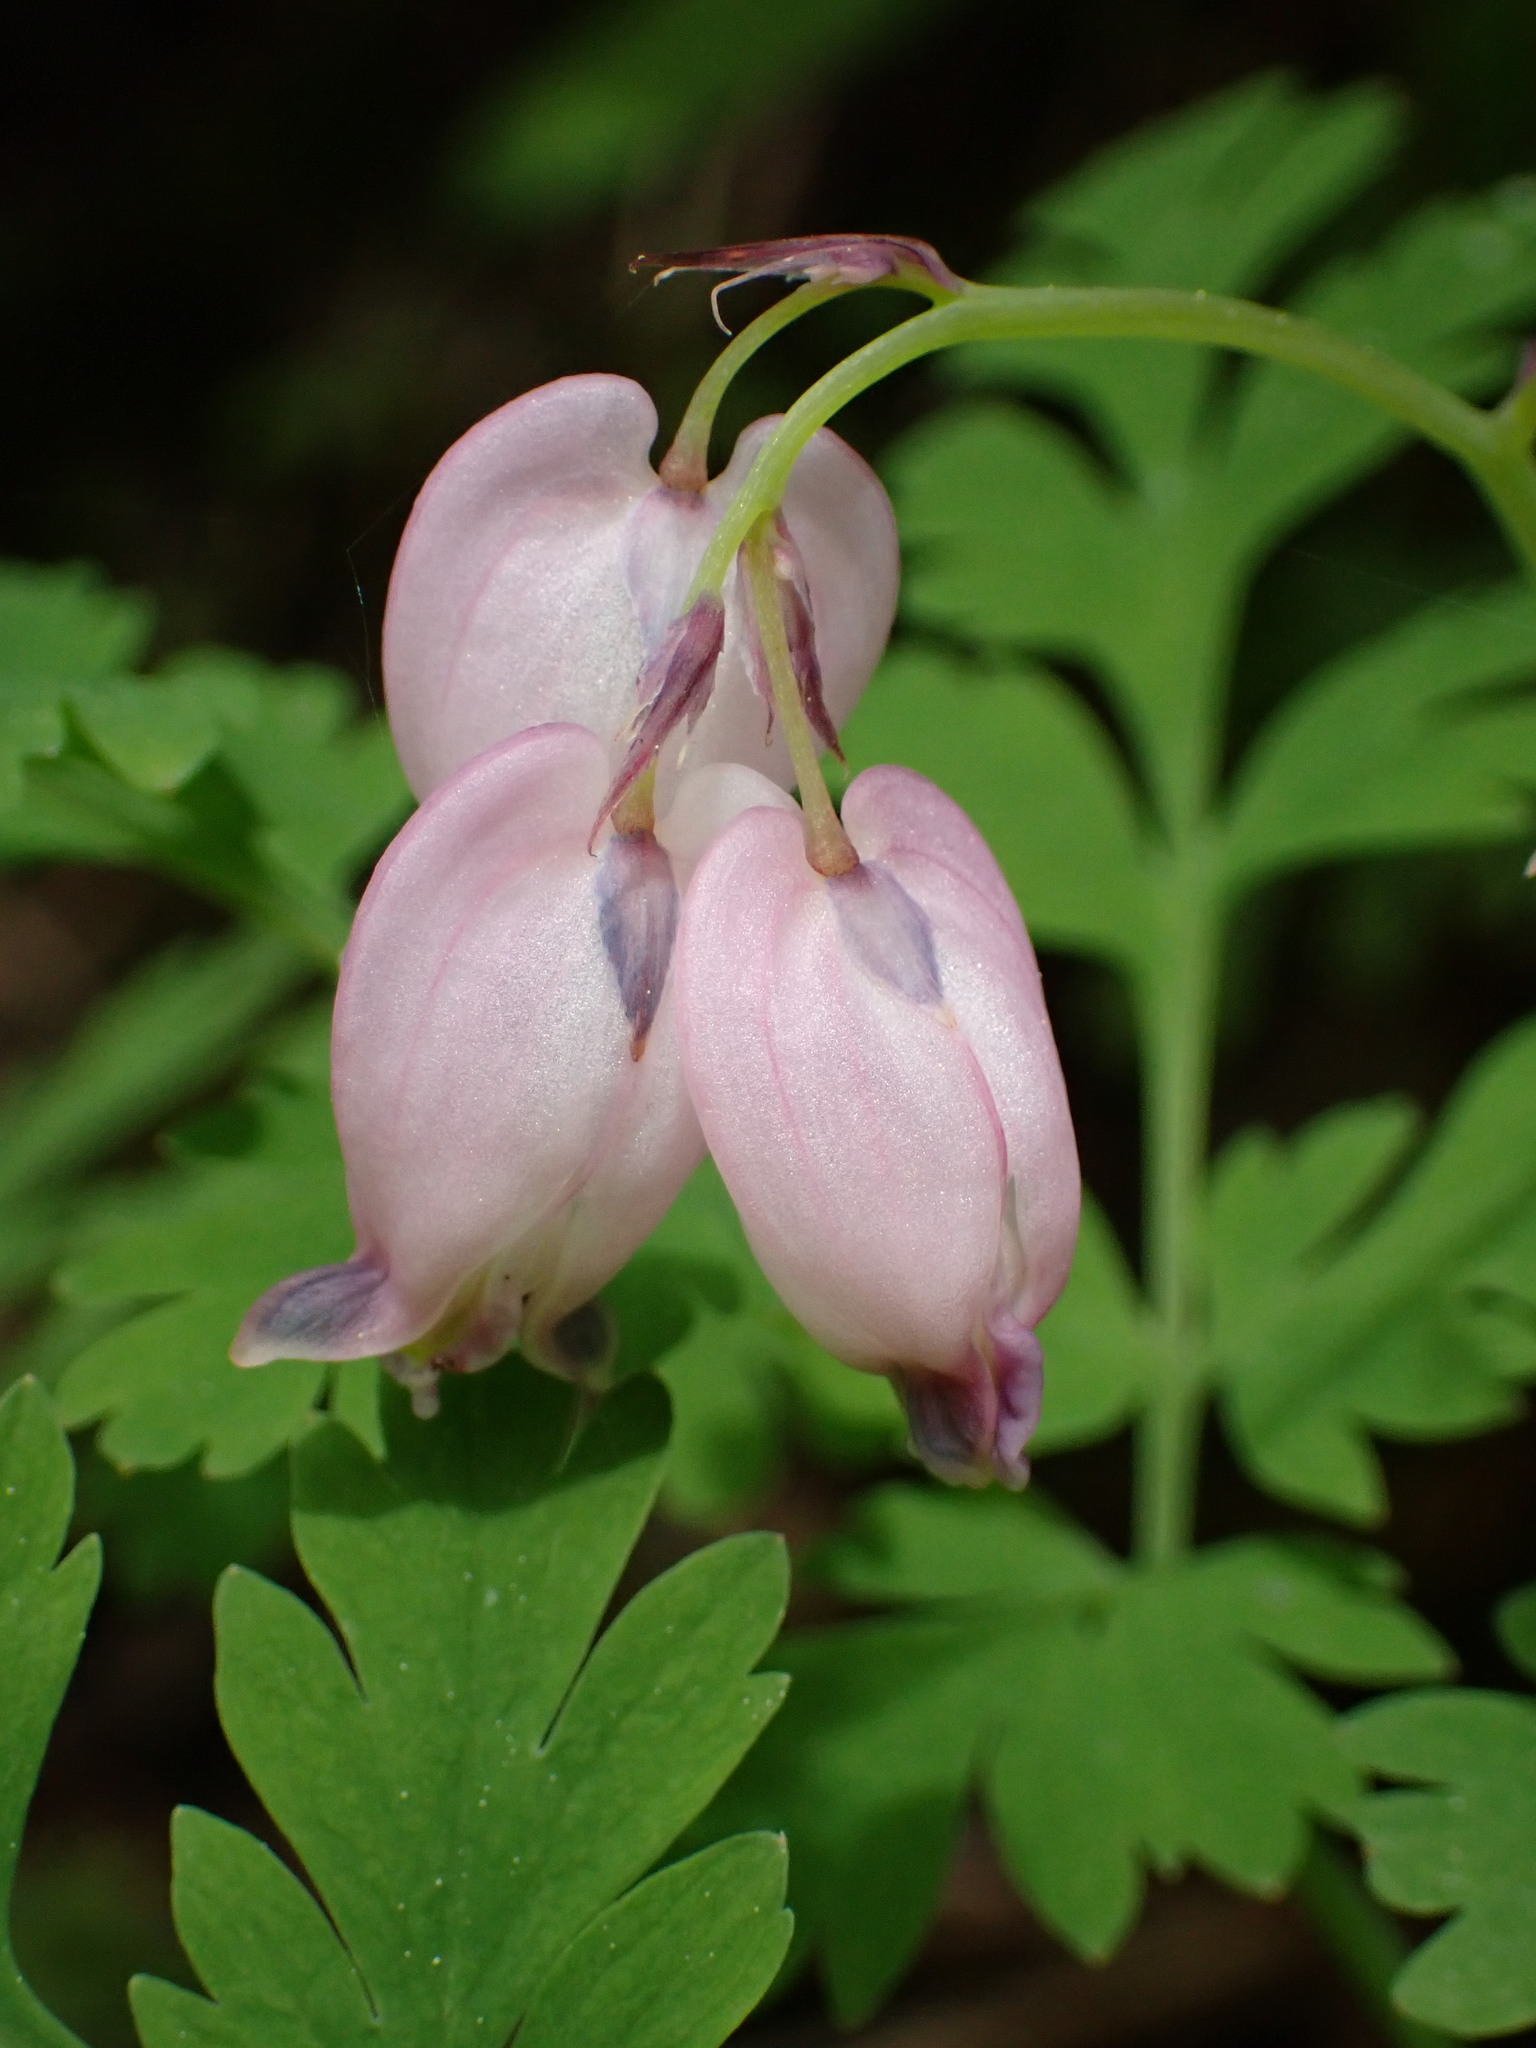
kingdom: Plantae
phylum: Tracheophyta
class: Magnoliopsida
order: Ranunculales
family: Papaveraceae
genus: Dicentra
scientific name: Dicentra formosa
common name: Bleeding-heart
